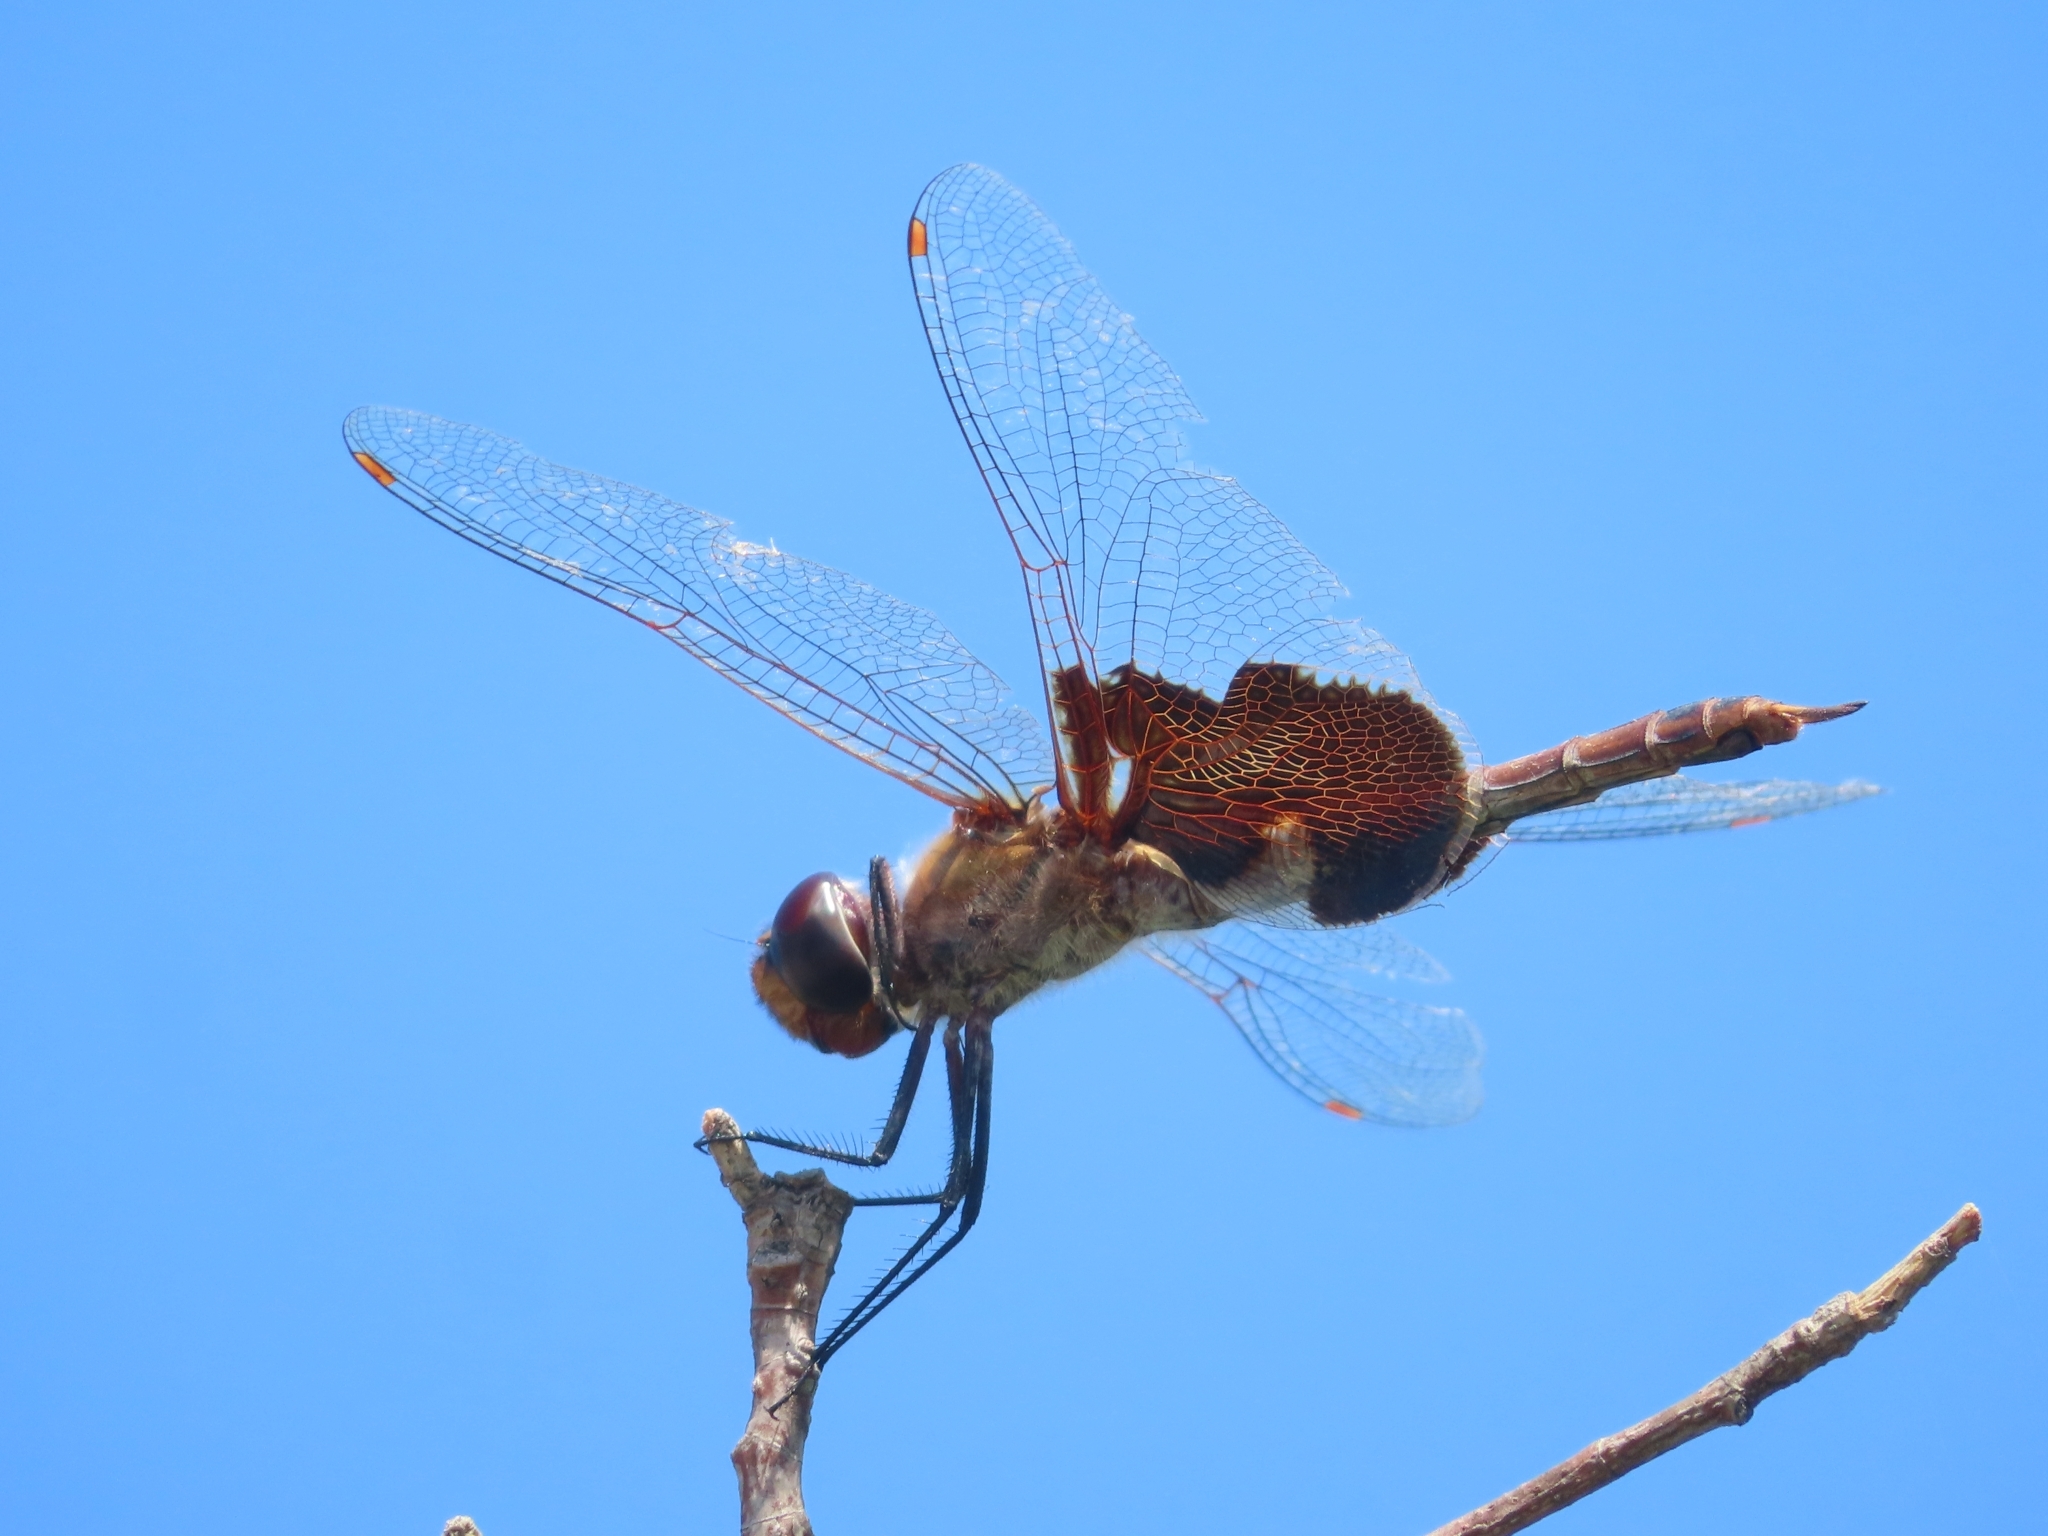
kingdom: Animalia
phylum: Arthropoda
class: Insecta
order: Odonata
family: Libellulidae
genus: Tramea
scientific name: Tramea carolina
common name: Carolina saddlebags
